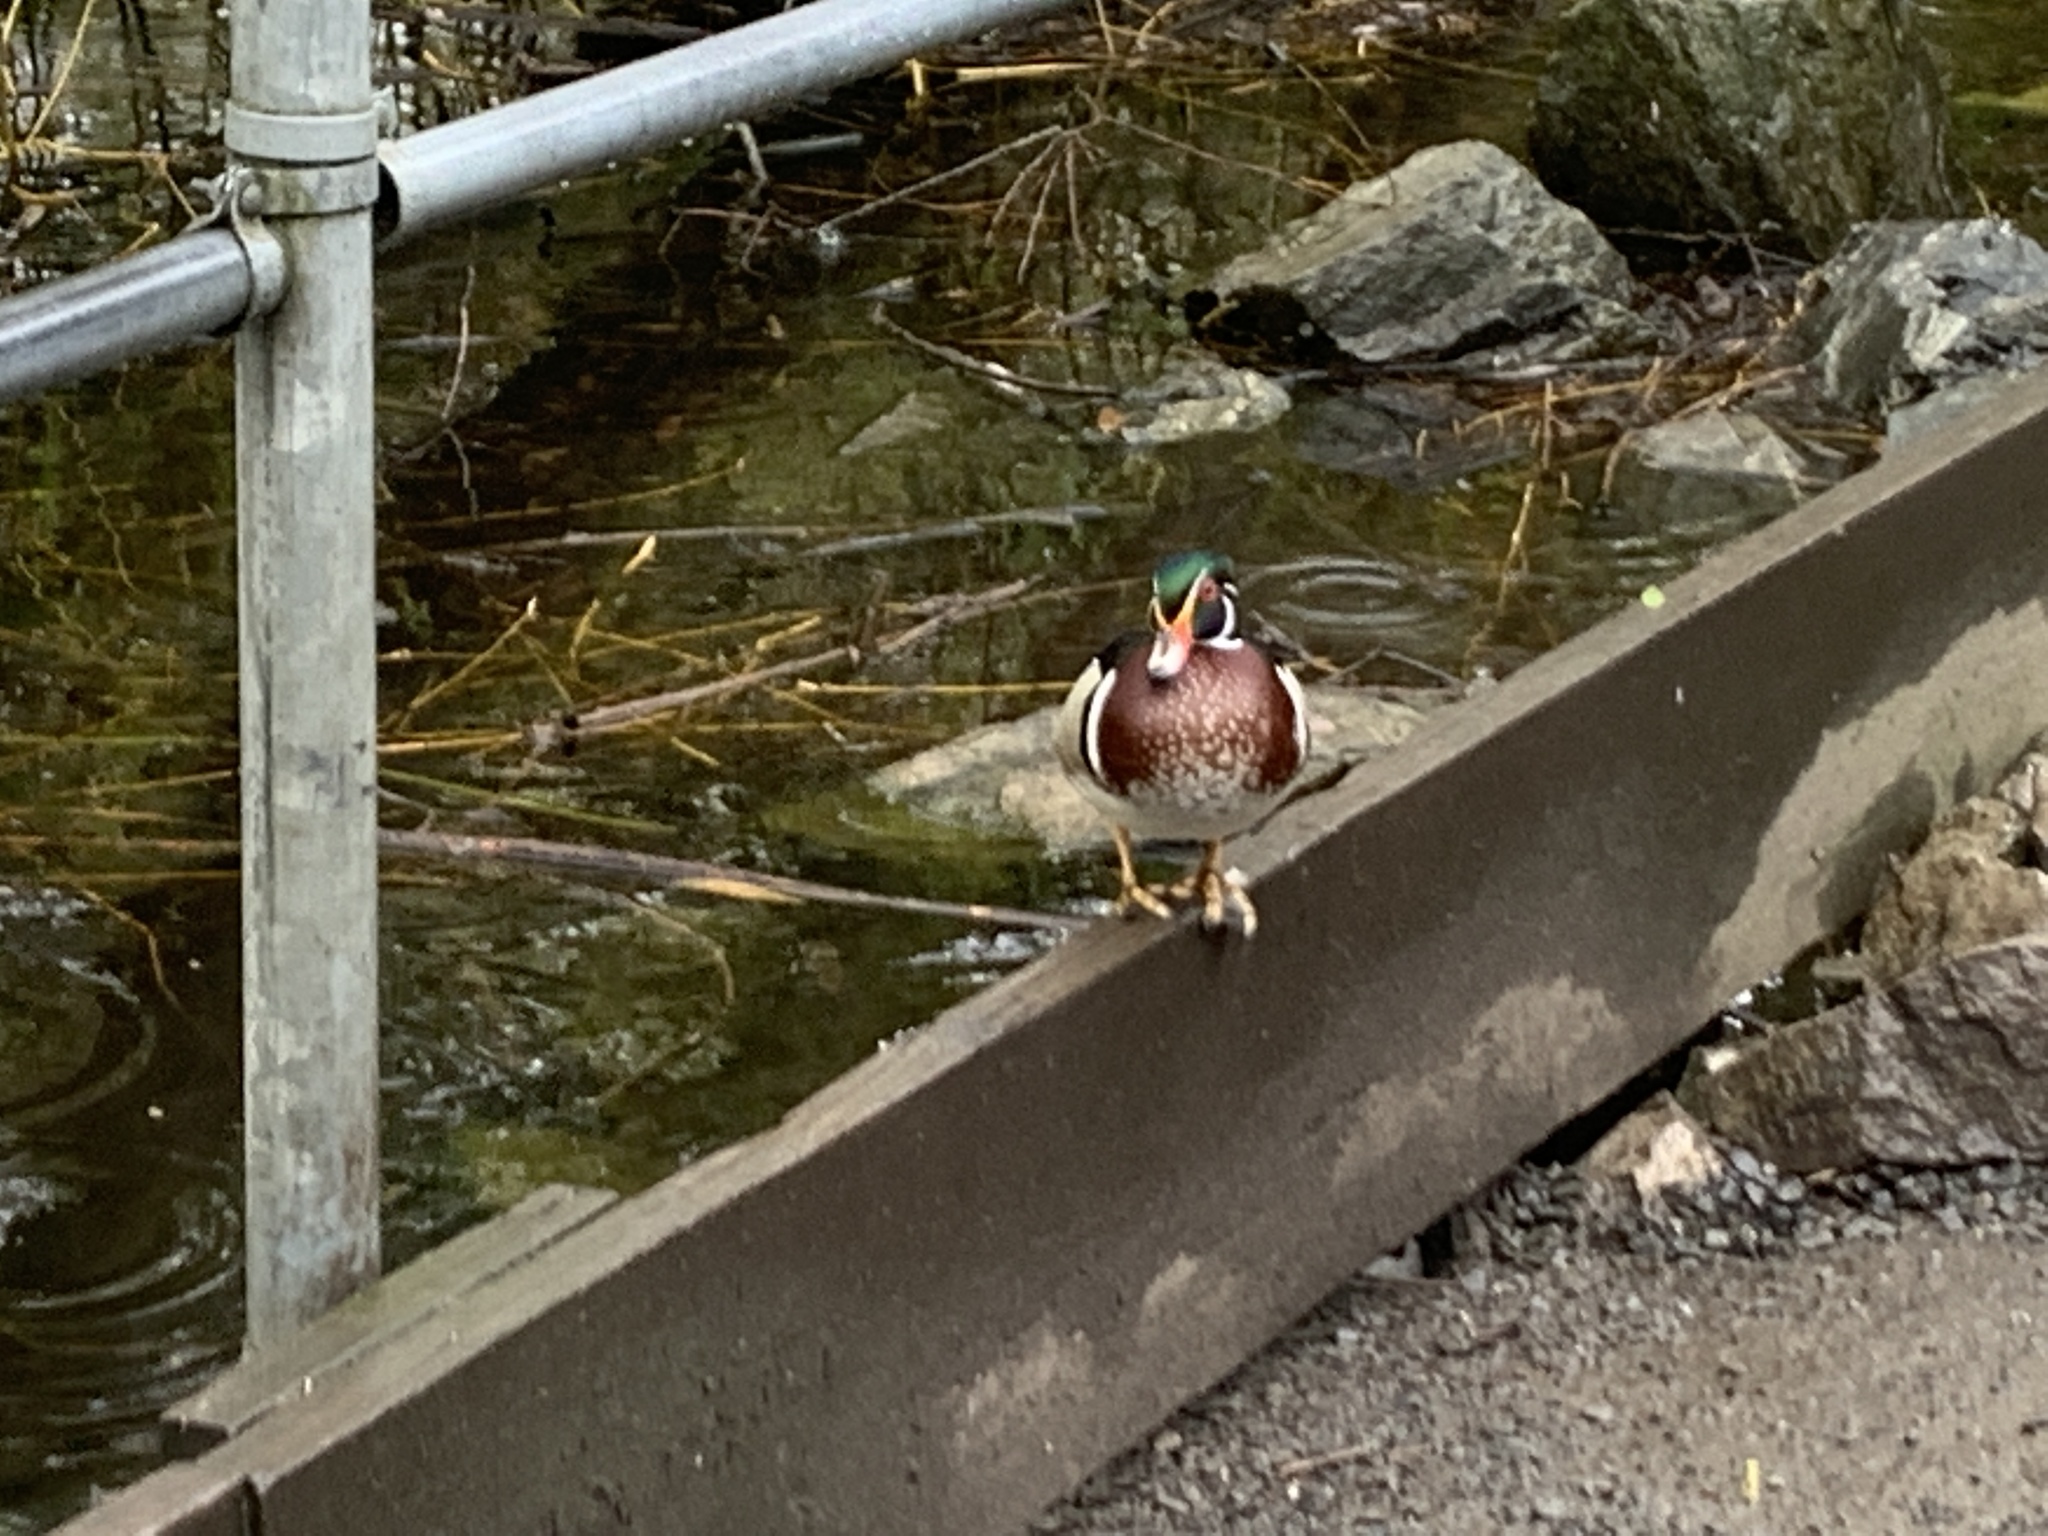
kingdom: Animalia
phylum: Chordata
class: Aves
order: Anseriformes
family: Anatidae
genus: Aix
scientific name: Aix sponsa
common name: Wood duck
